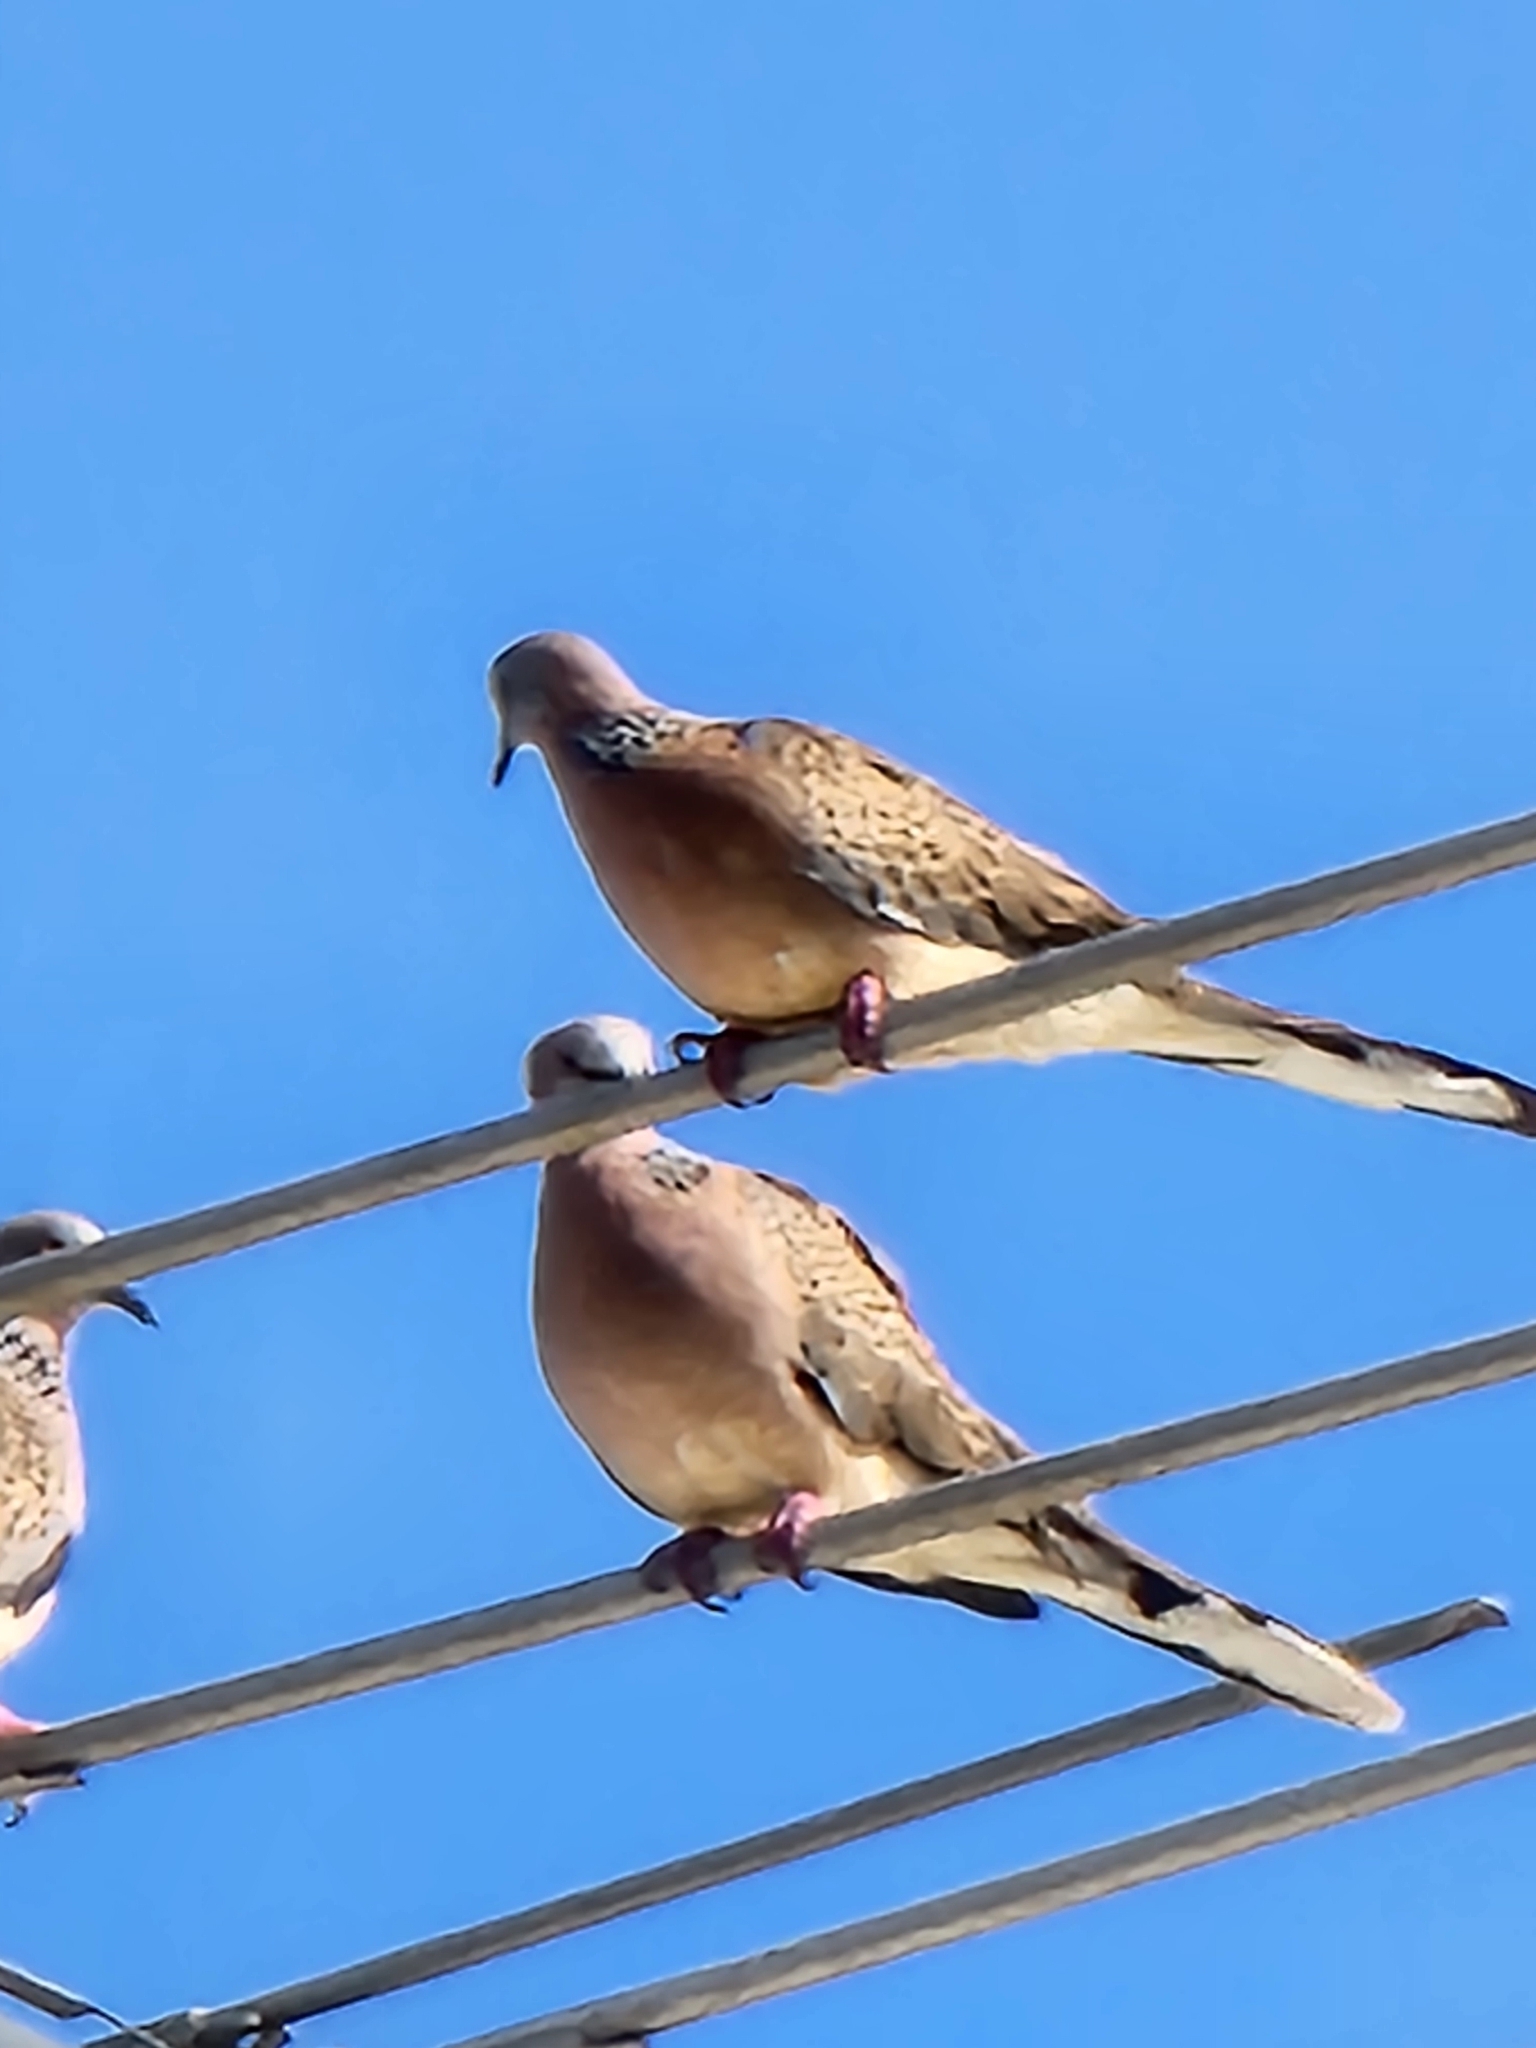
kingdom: Animalia
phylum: Chordata
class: Aves
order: Columbiformes
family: Columbidae
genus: Spilopelia
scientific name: Spilopelia chinensis
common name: Spotted dove
